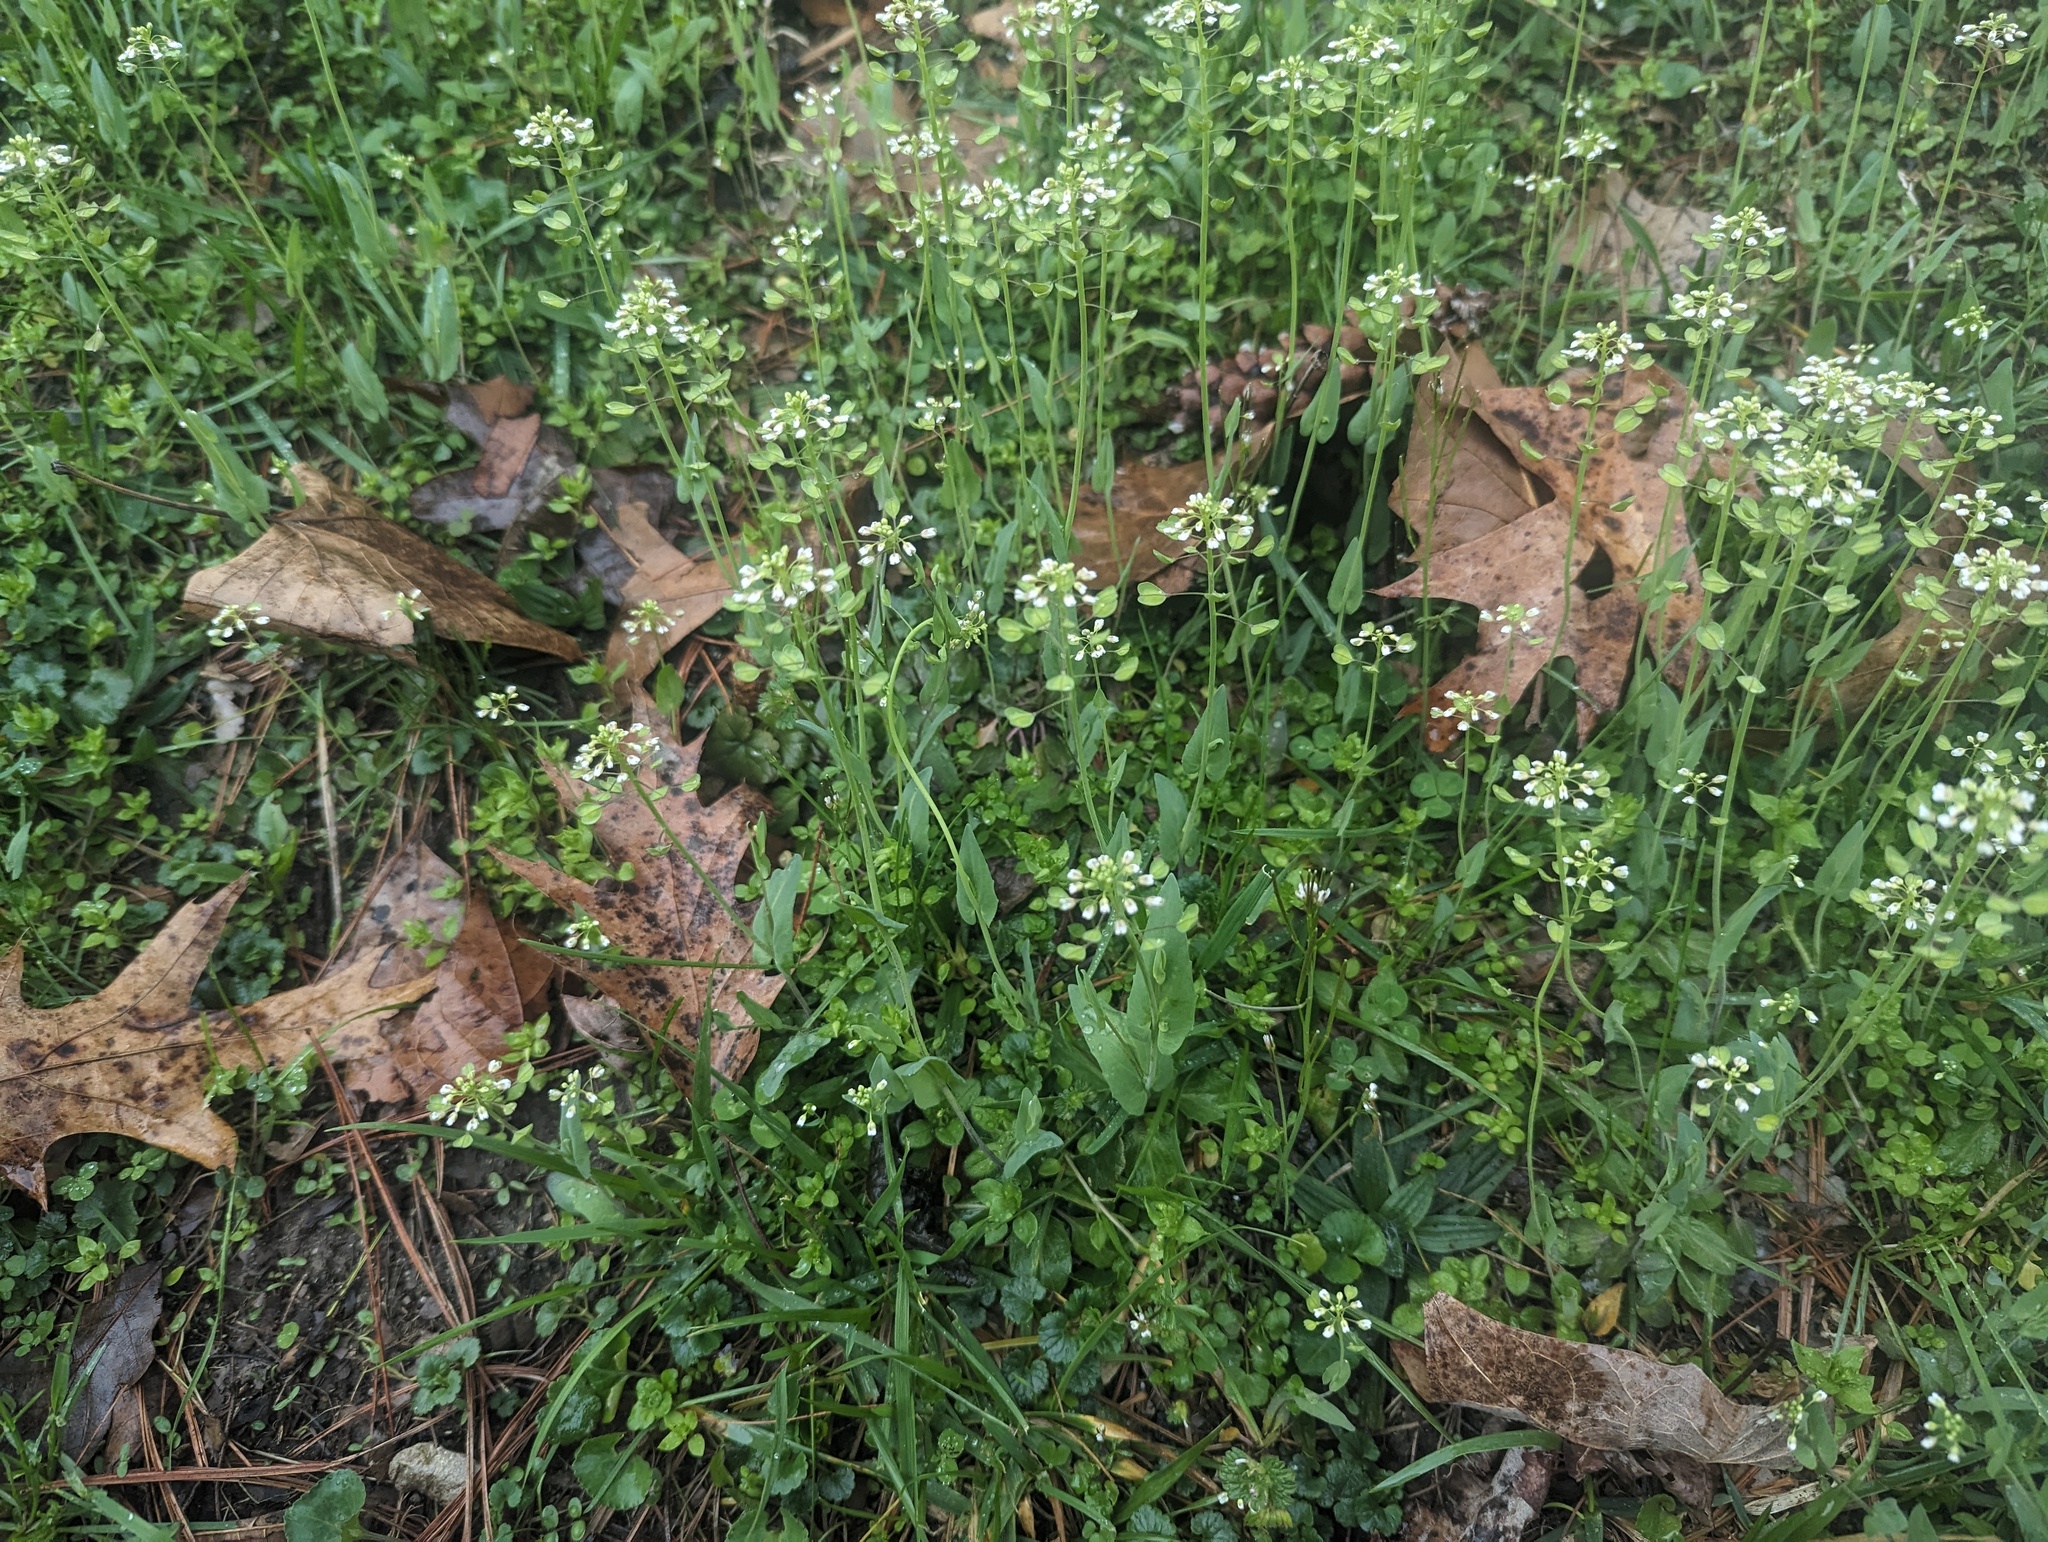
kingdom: Plantae
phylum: Tracheophyta
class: Magnoliopsida
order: Brassicales
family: Brassicaceae
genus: Noccaea
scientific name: Noccaea perfoliata
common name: Perfoliate pennycress
